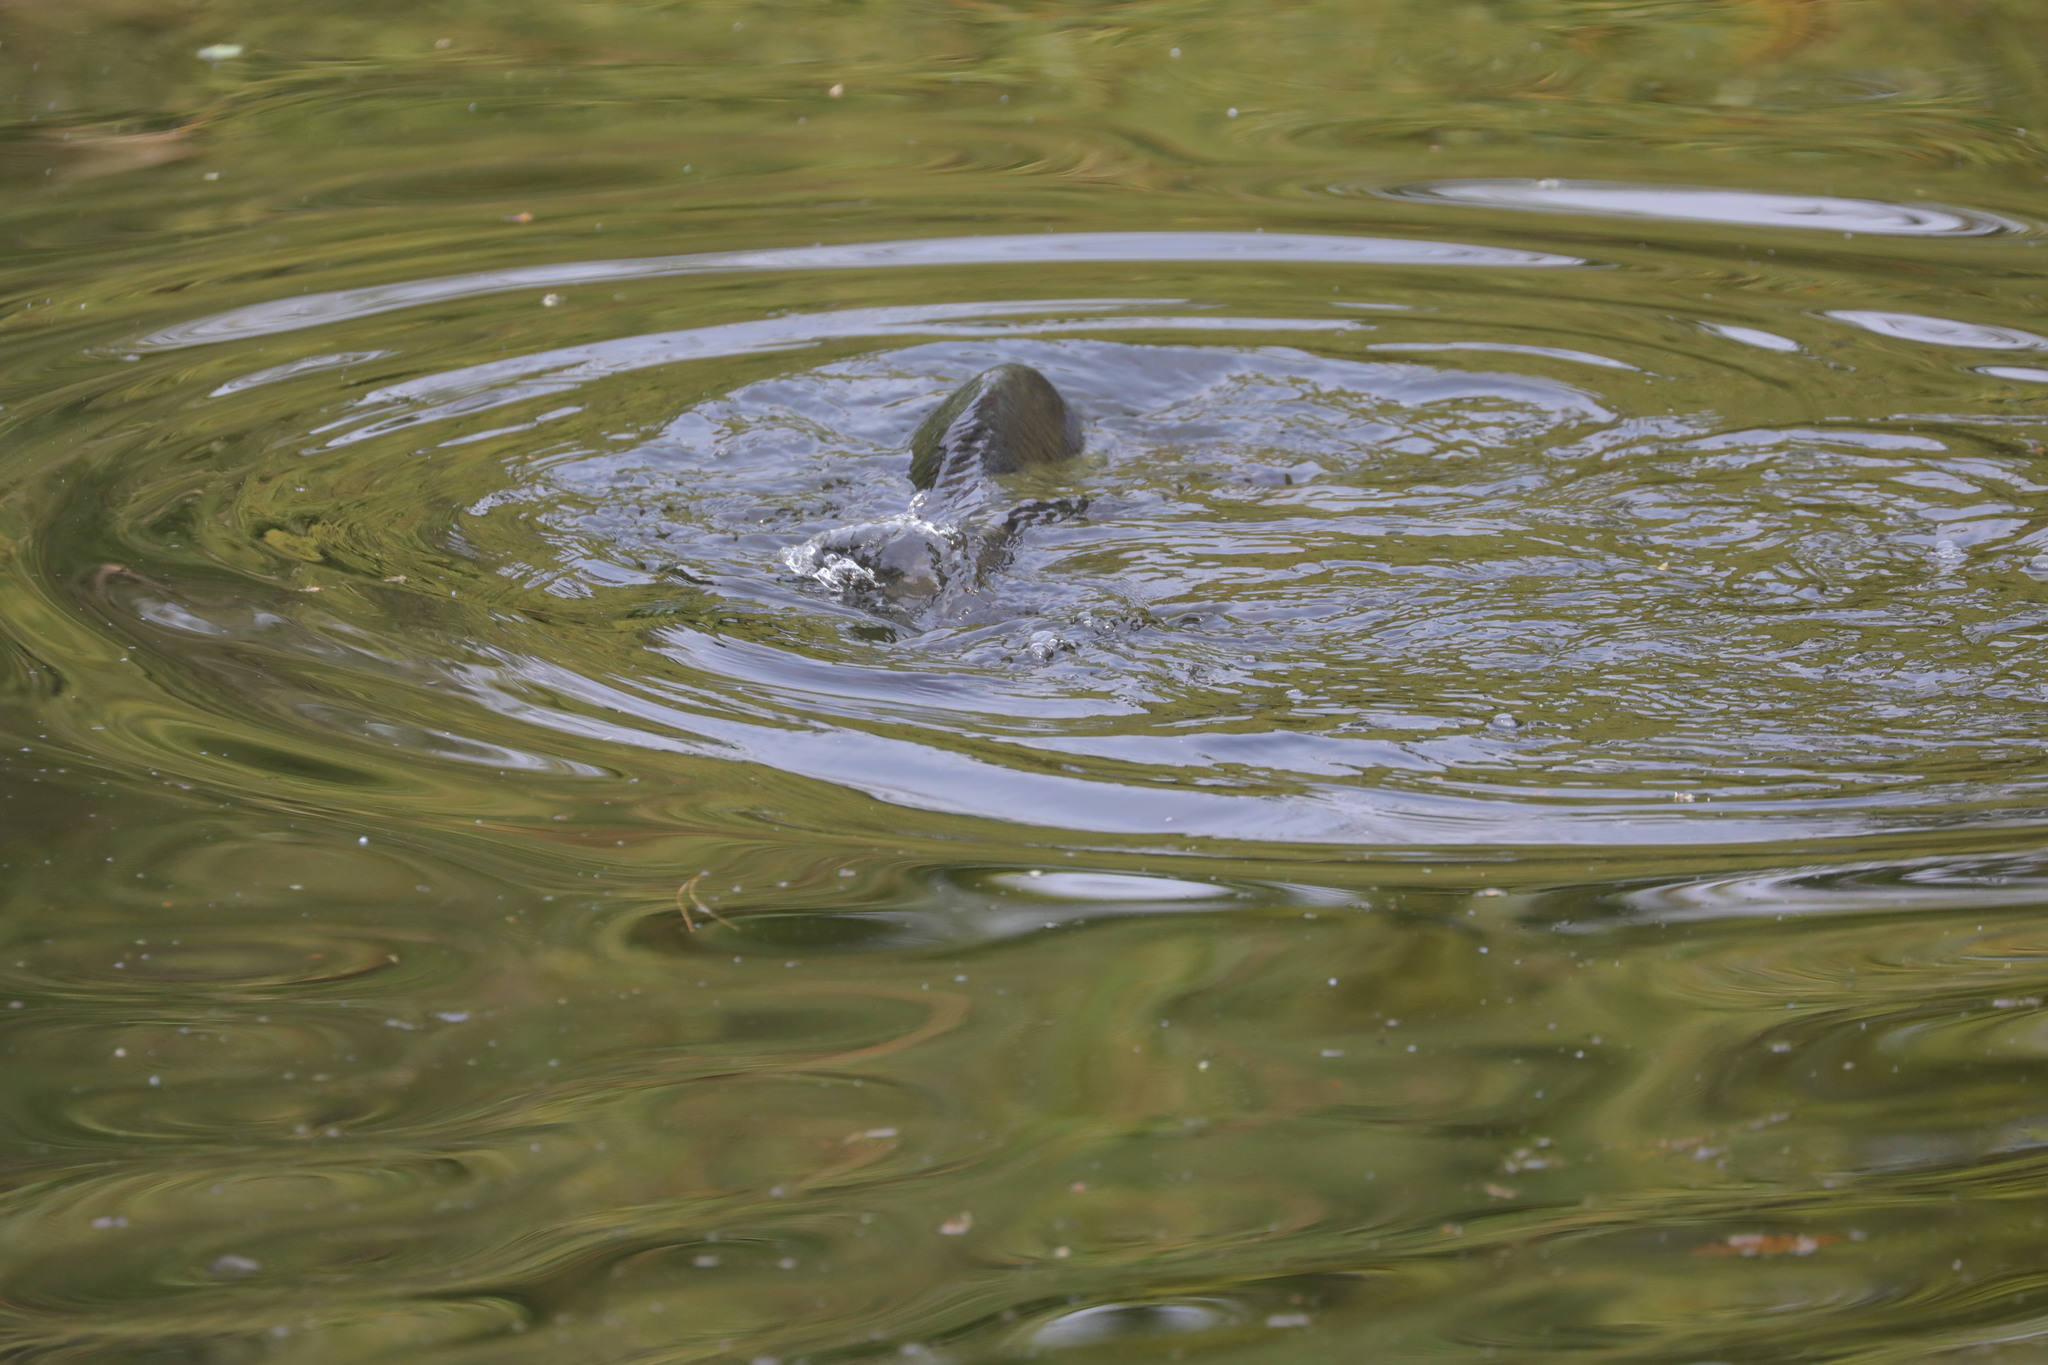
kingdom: Animalia
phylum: Chordata
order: Cypriniformes
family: Cyprinidae
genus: Cyprinus
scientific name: Cyprinus carpio
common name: Common carp
